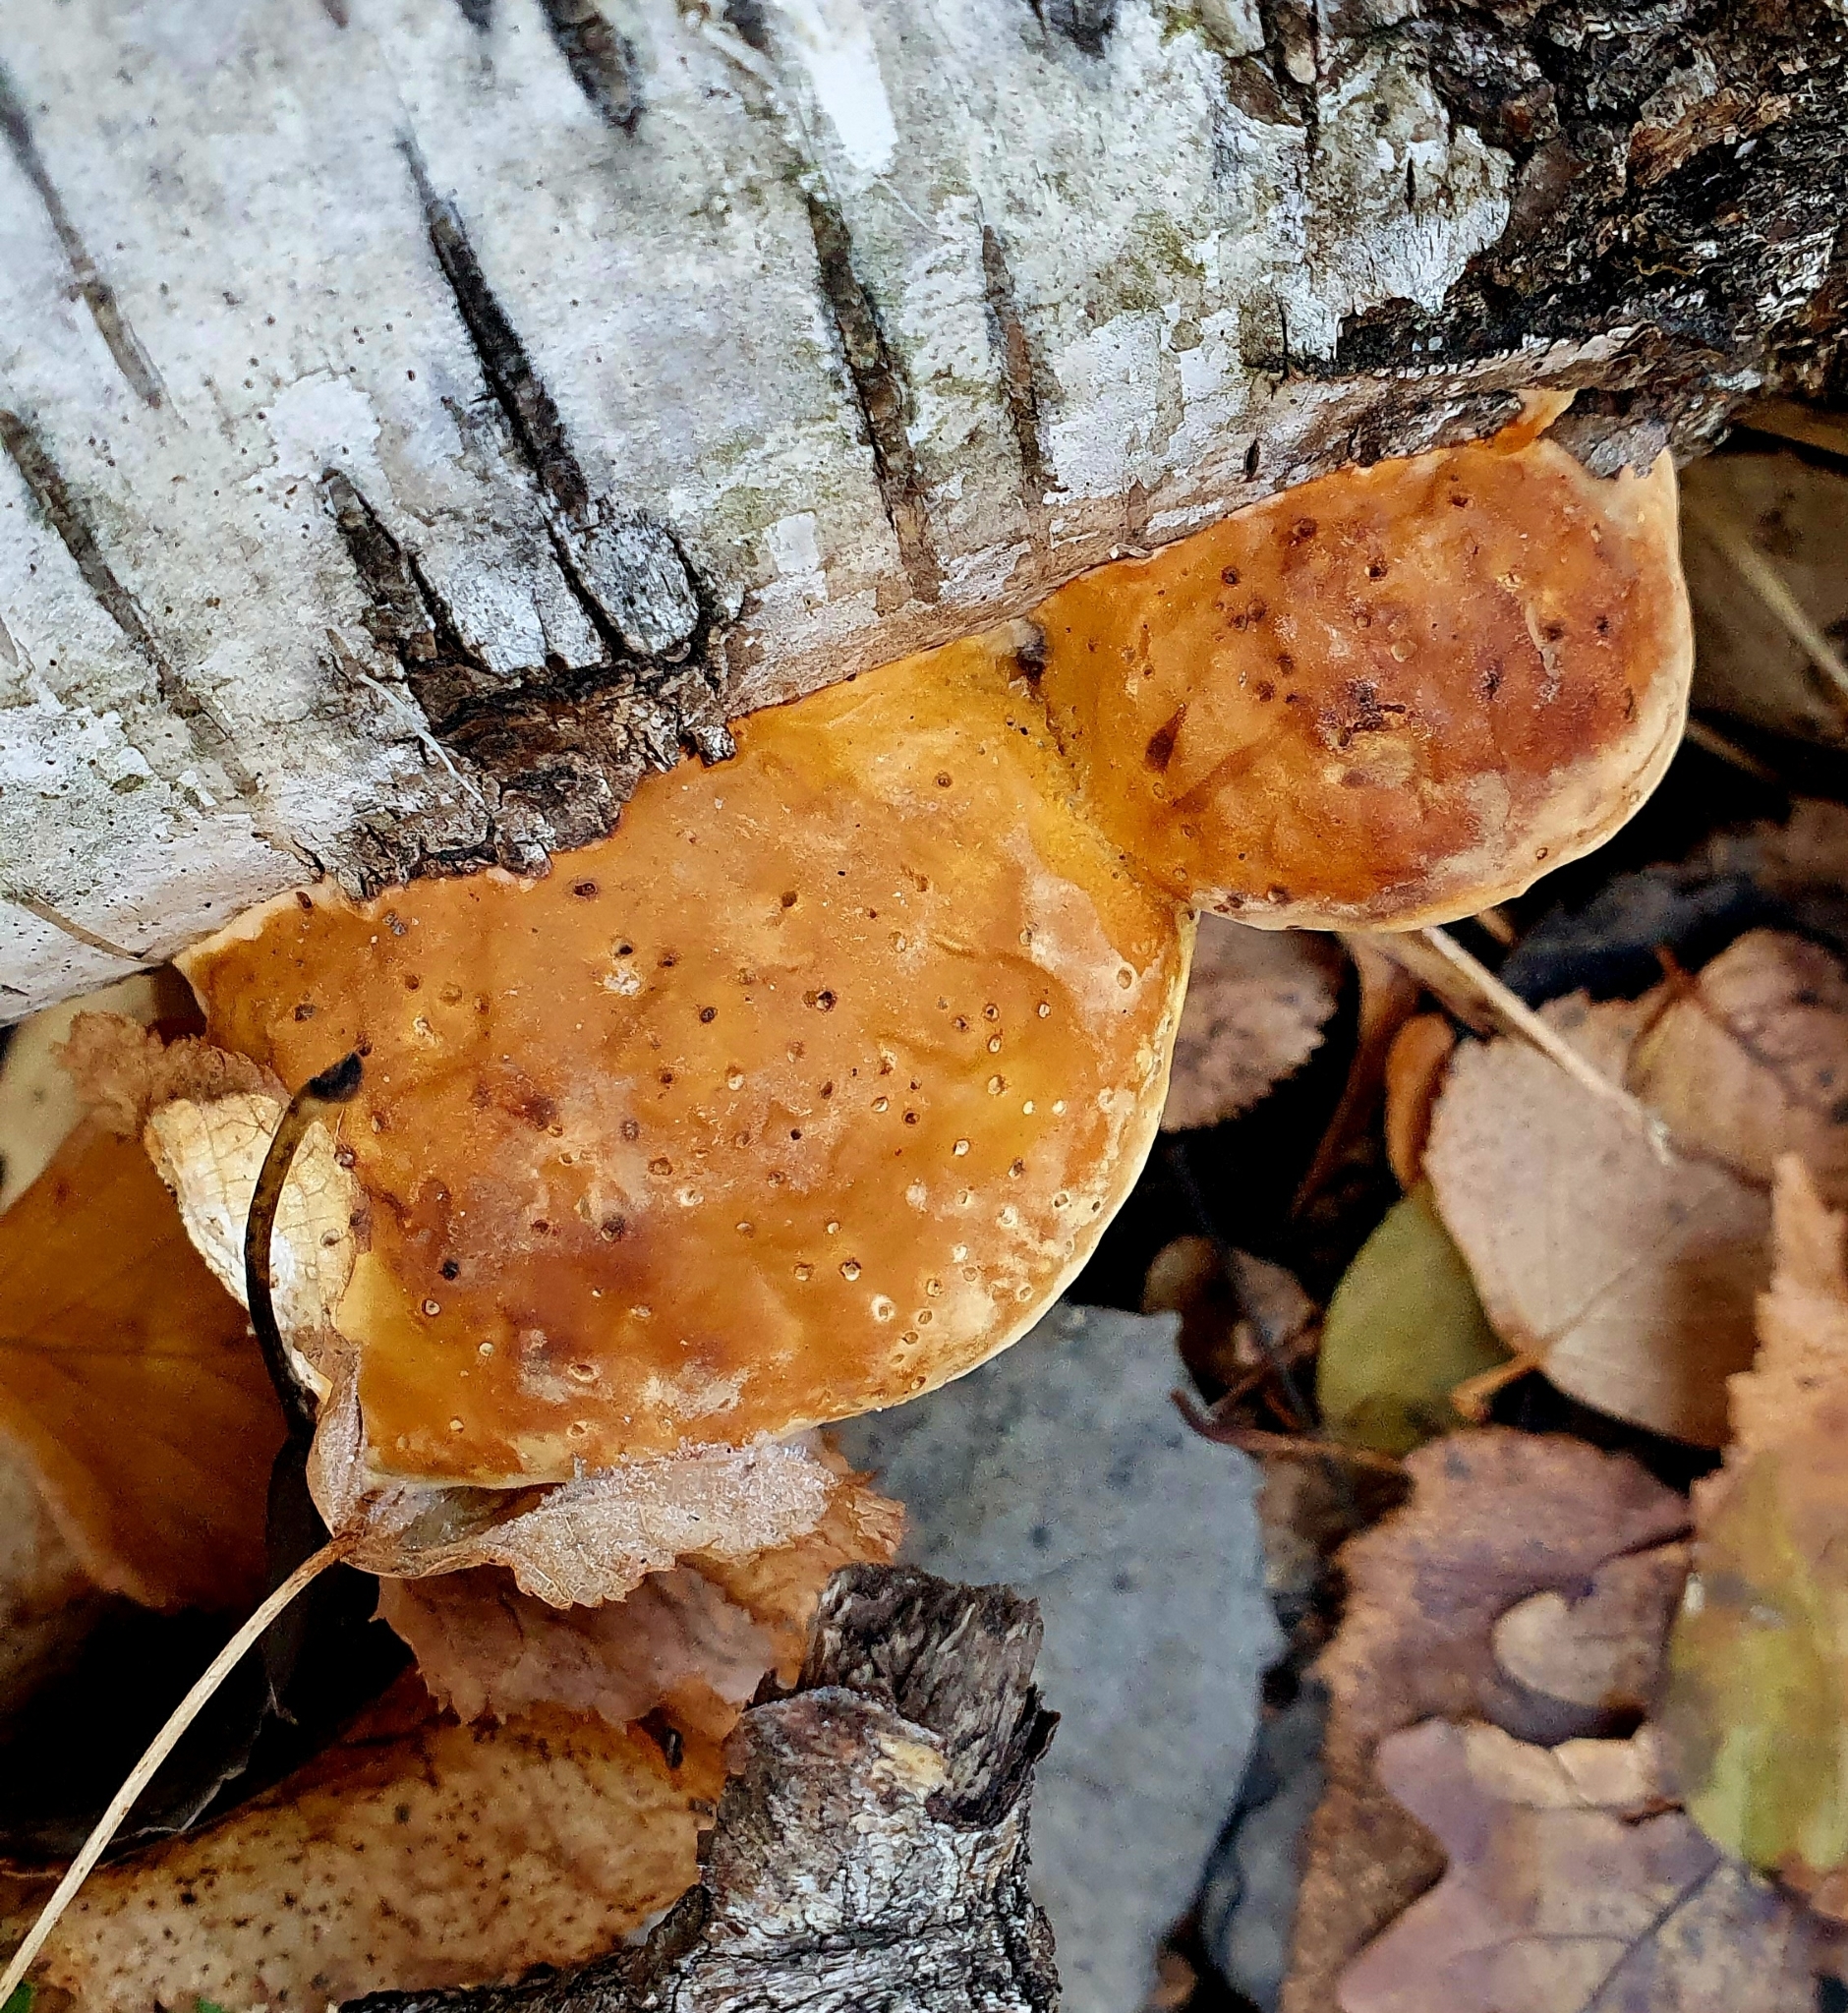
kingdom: Fungi
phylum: Basidiomycota
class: Agaricomycetes
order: Polyporales
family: Fomitopsidaceae
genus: Fomitopsis
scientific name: Fomitopsis pinicola
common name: Red-belted bracket
